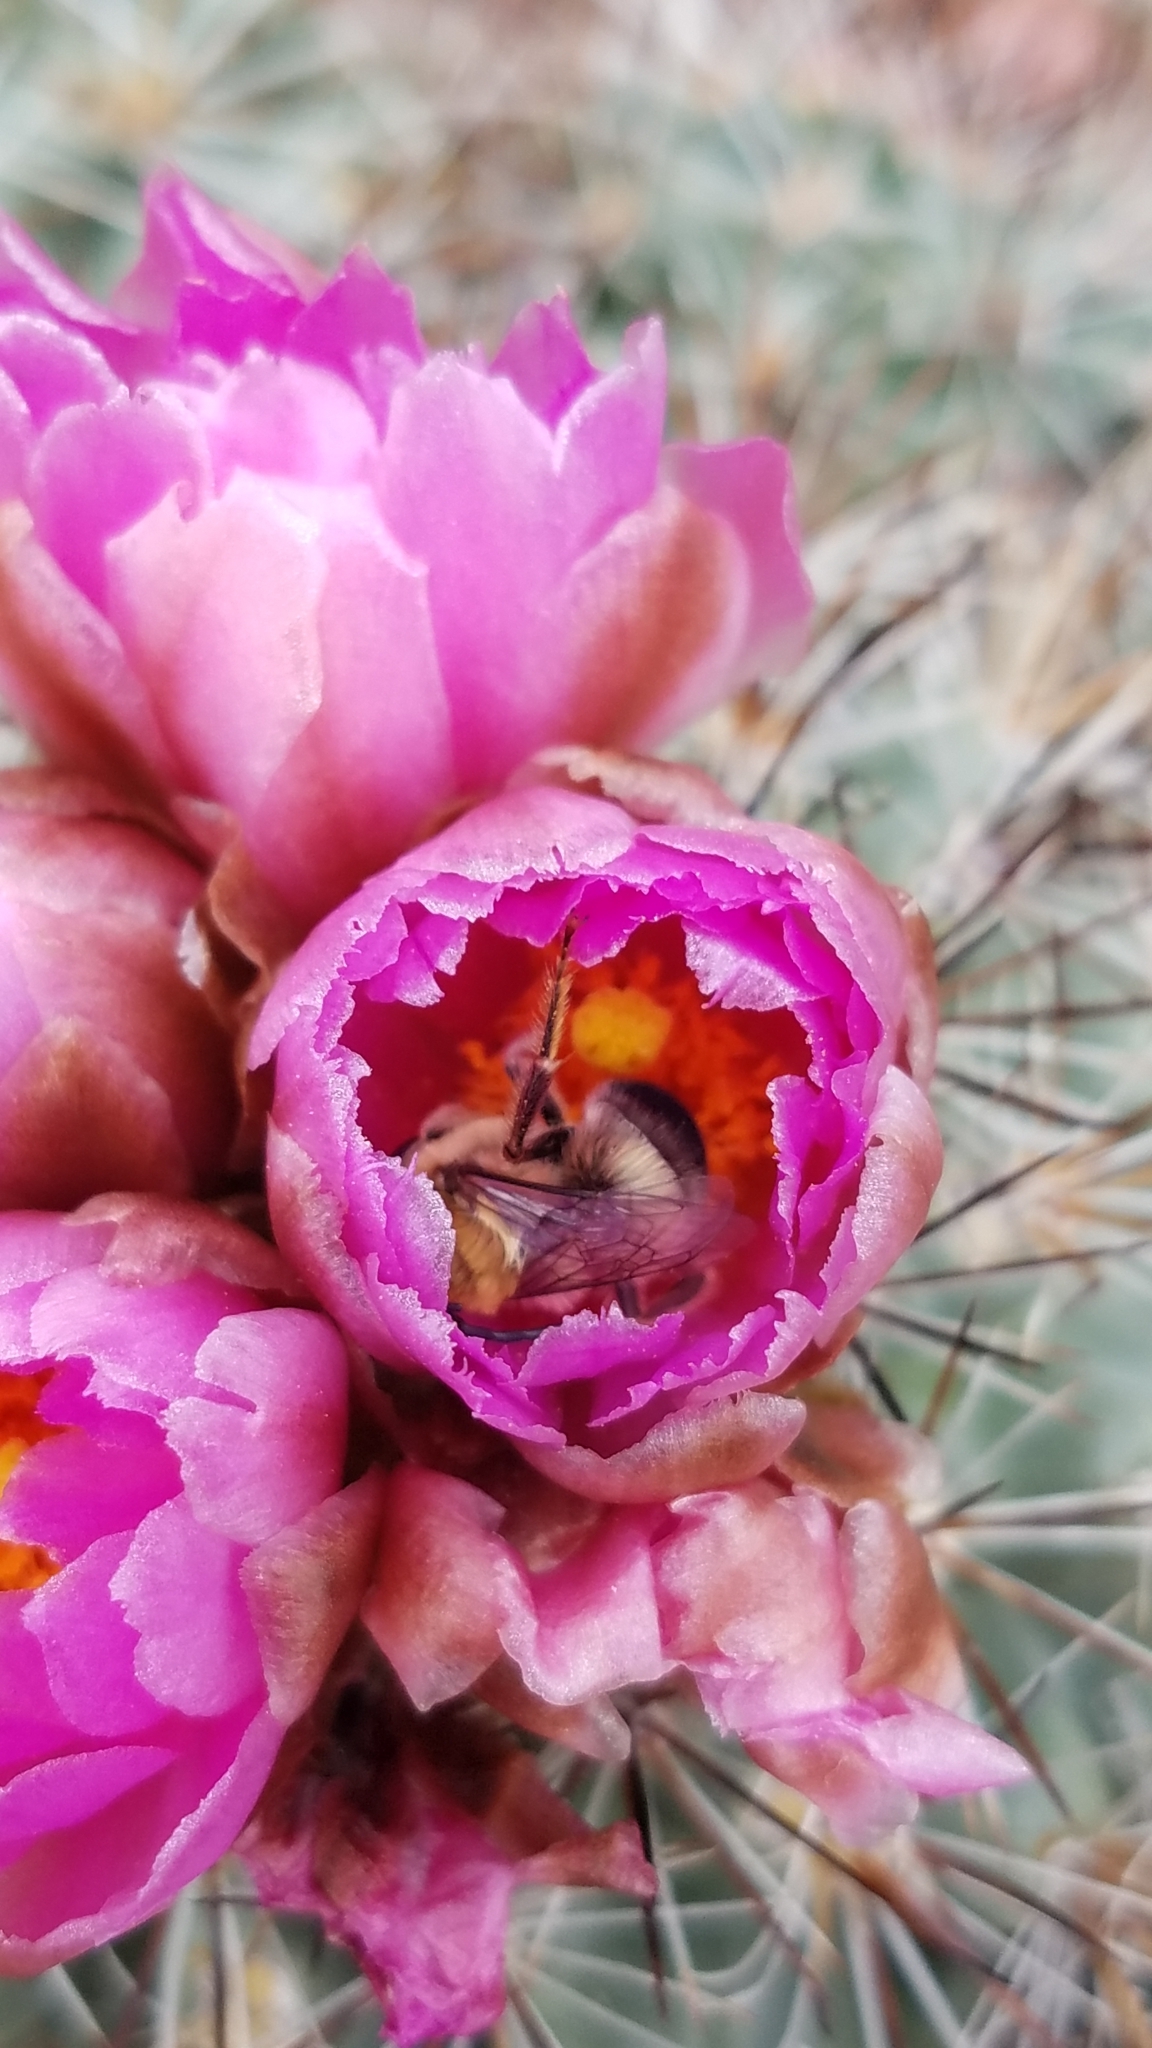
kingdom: Plantae
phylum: Tracheophyta
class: Magnoliopsida
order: Caryophyllales
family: Cactaceae
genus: Pediocactus
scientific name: Pediocactus nigrispinus
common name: Simpson's hedgehog cactus
